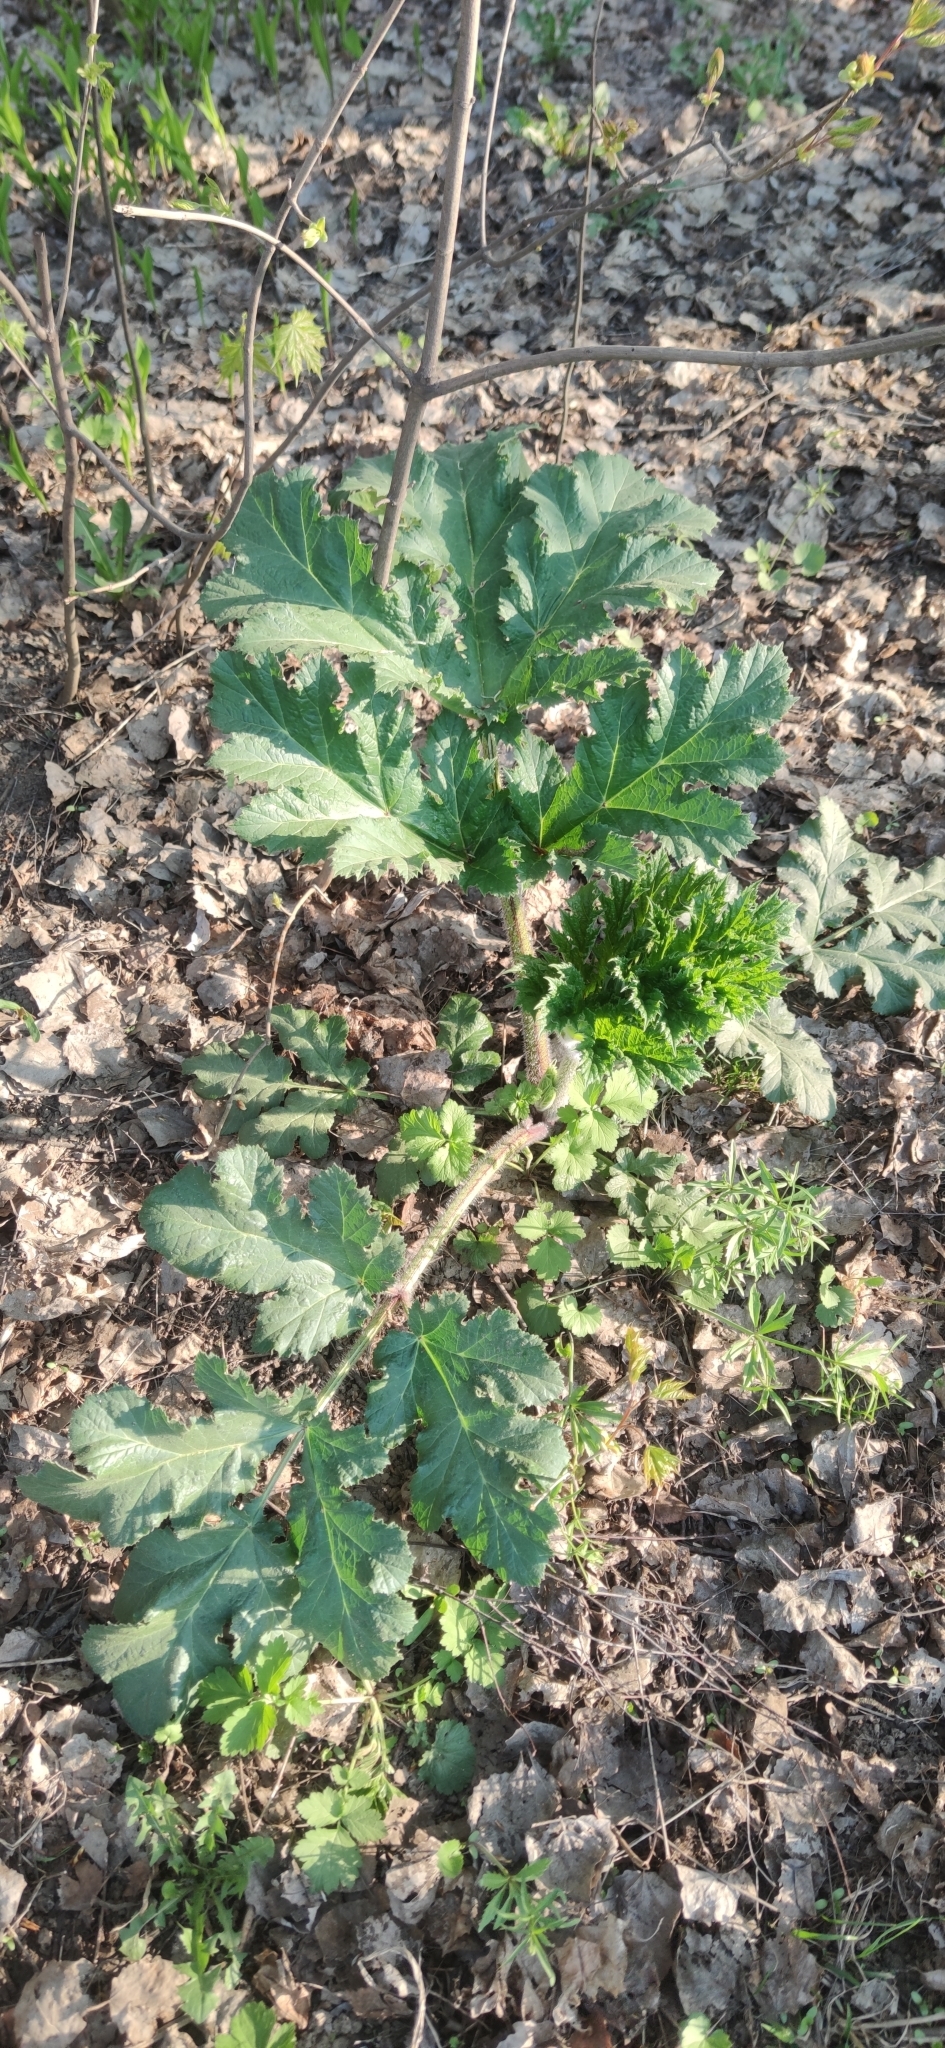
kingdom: Plantae
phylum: Tracheophyta
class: Magnoliopsida
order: Apiales
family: Apiaceae
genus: Heracleum
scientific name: Heracleum sosnowskyi
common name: Sosnowsky's hogweed
